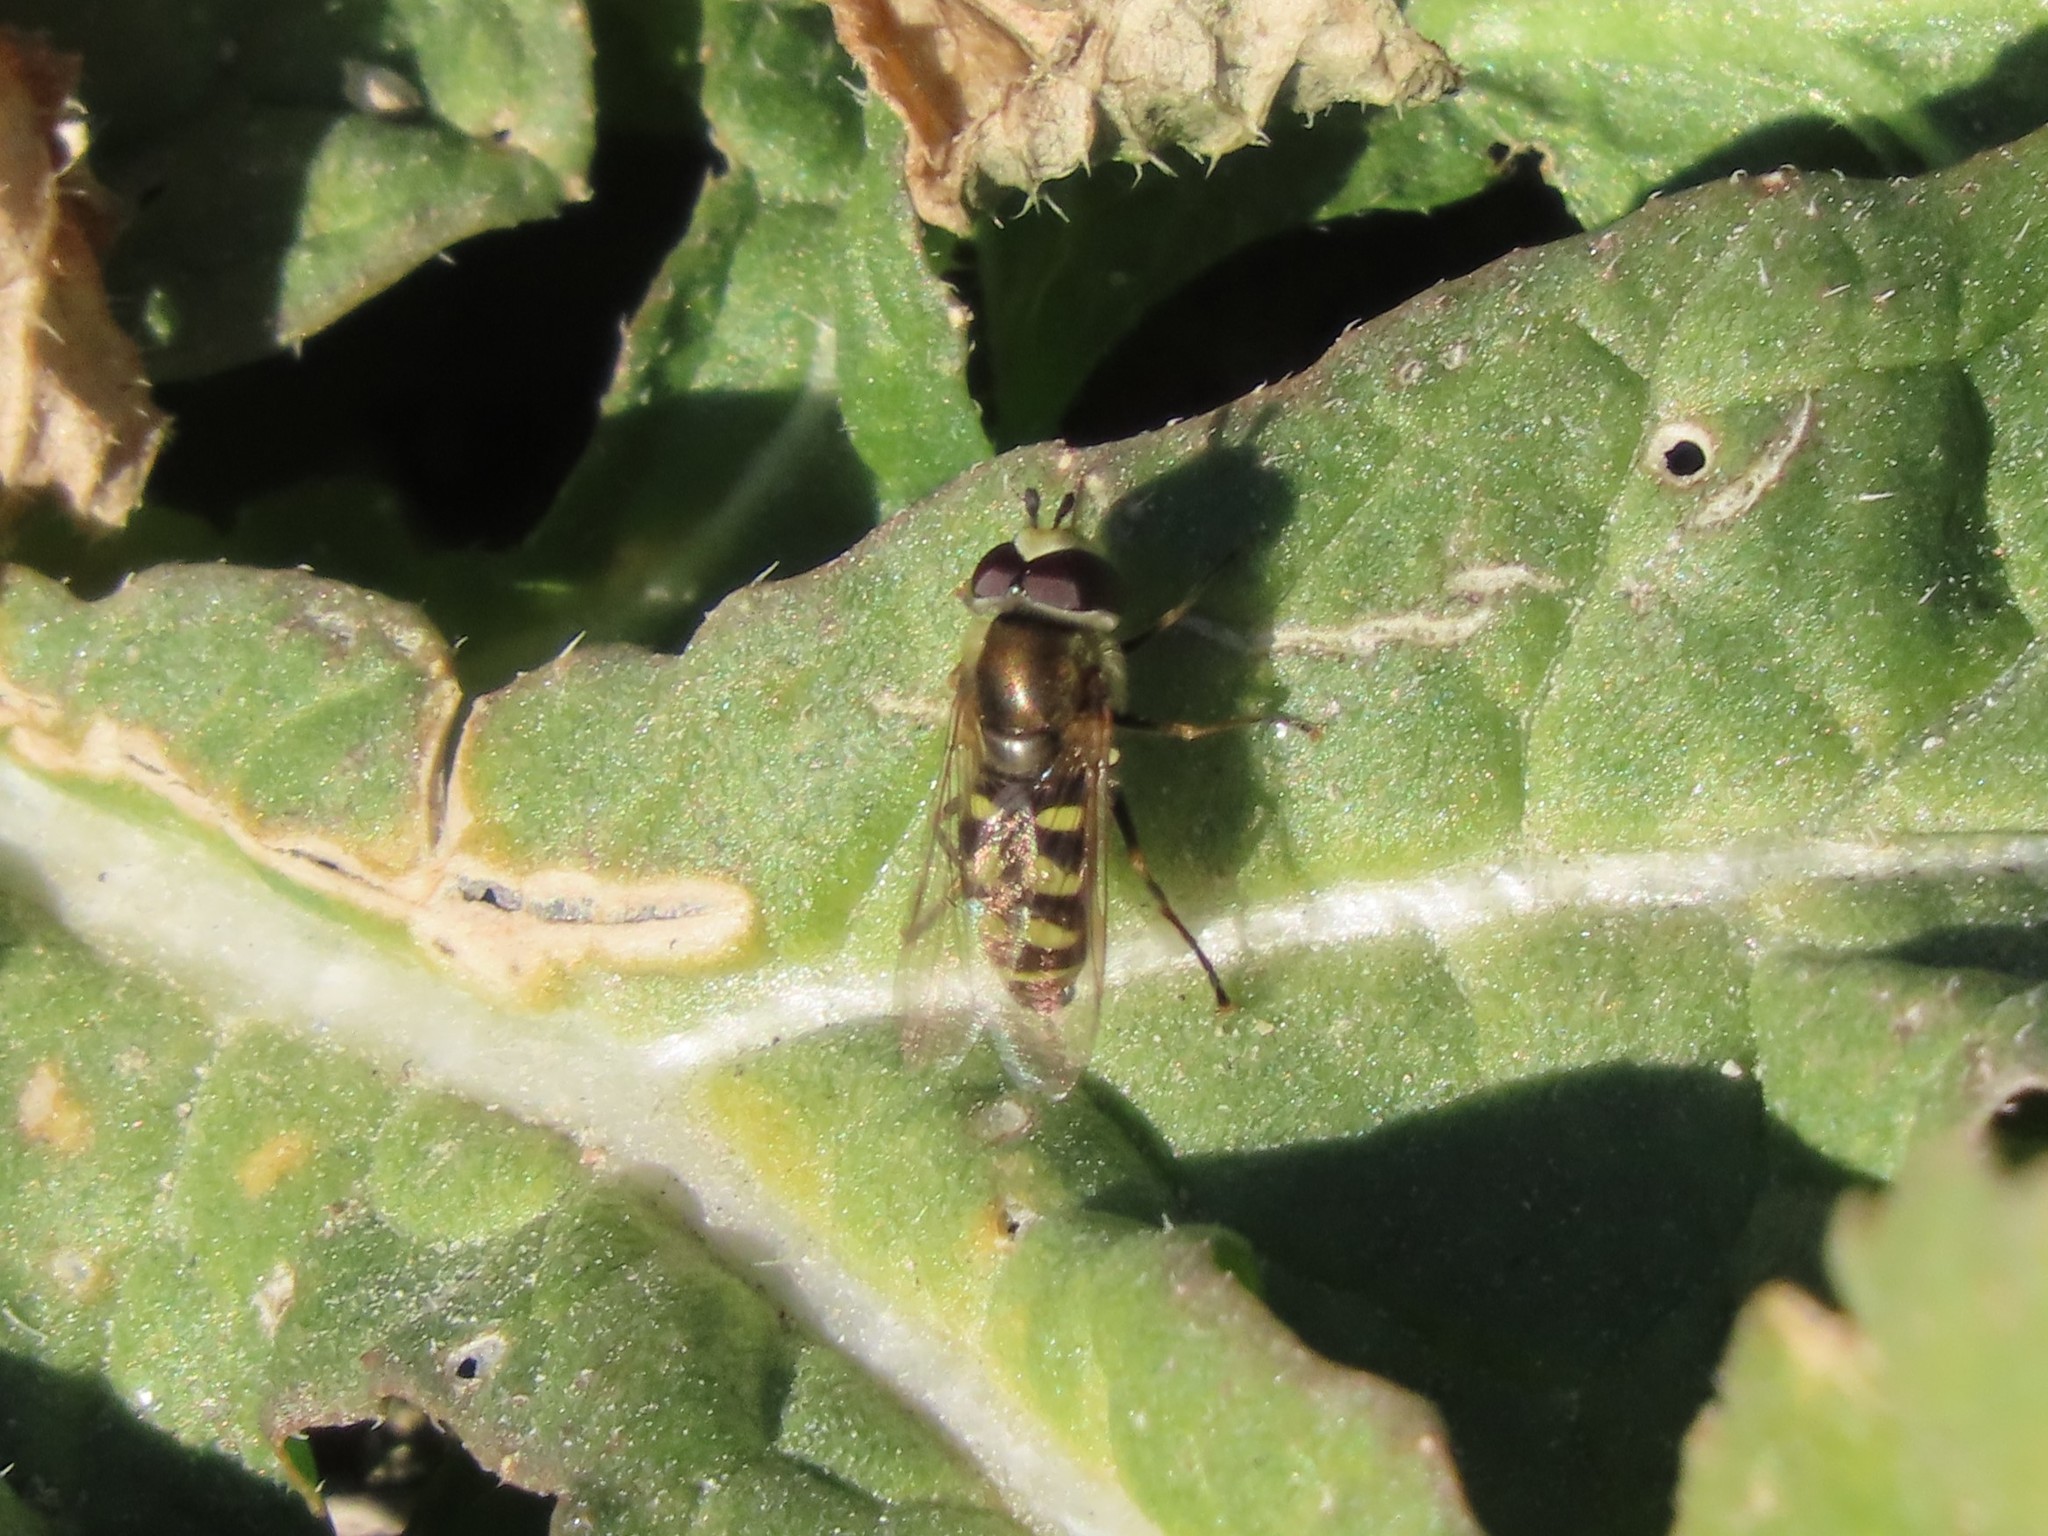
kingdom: Animalia
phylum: Arthropoda
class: Insecta
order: Diptera
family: Syrphidae
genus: Eupeodes
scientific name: Eupeodes corollae
